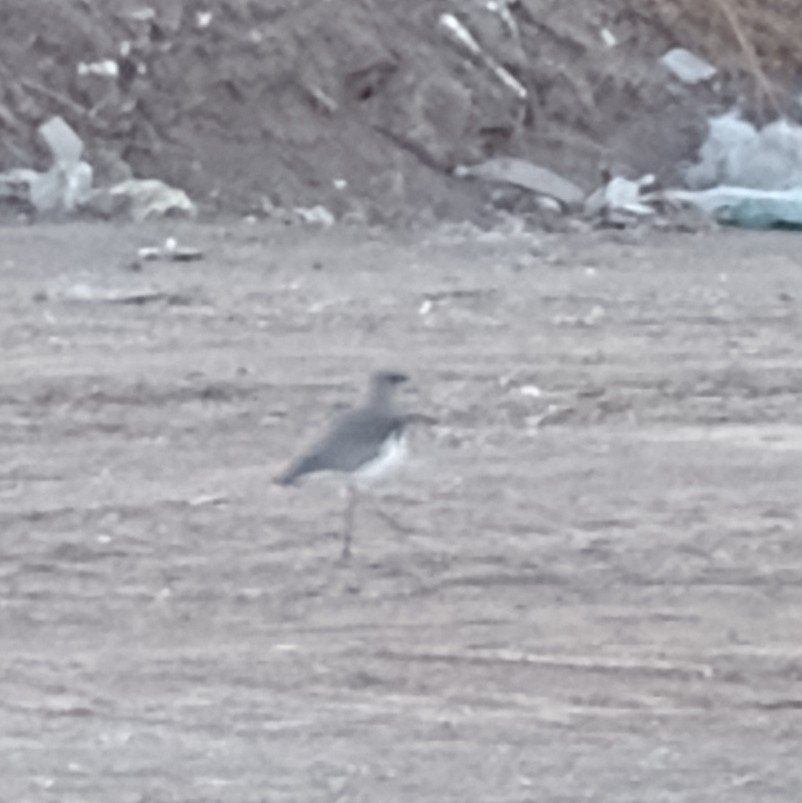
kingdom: Animalia
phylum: Chordata
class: Aves
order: Charadriiformes
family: Charadriidae
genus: Vanellus
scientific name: Vanellus chilensis
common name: Southern lapwing
